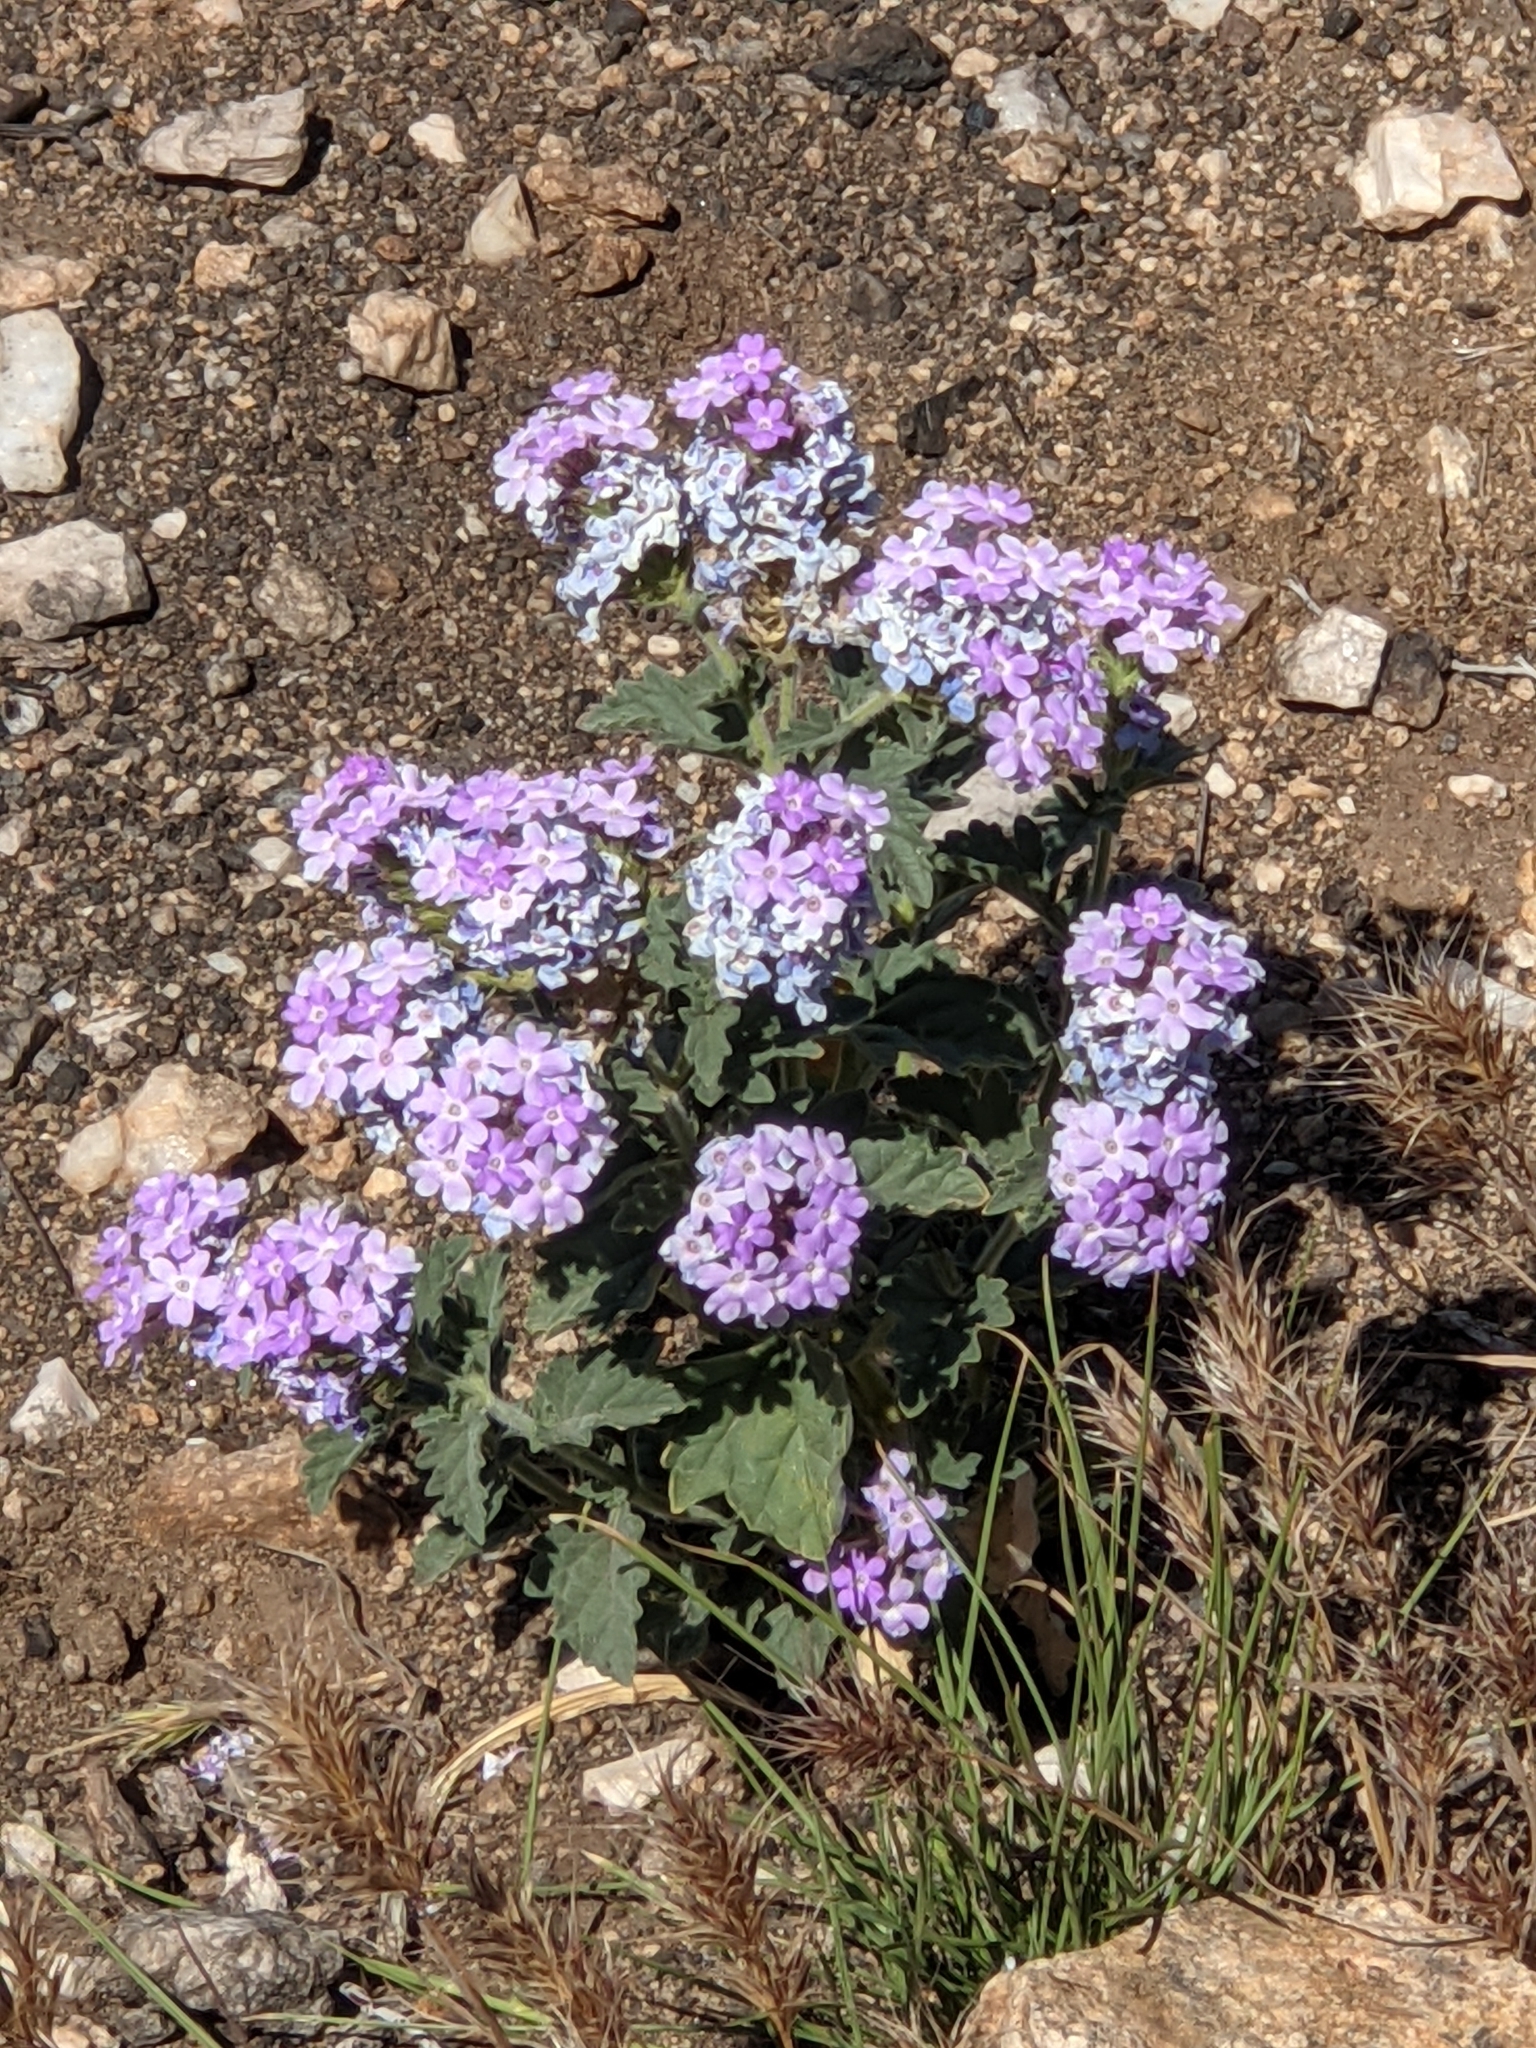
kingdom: Plantae
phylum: Tracheophyta
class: Magnoliopsida
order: Lamiales
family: Verbenaceae
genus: Verbena
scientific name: Verbena gooddingii
